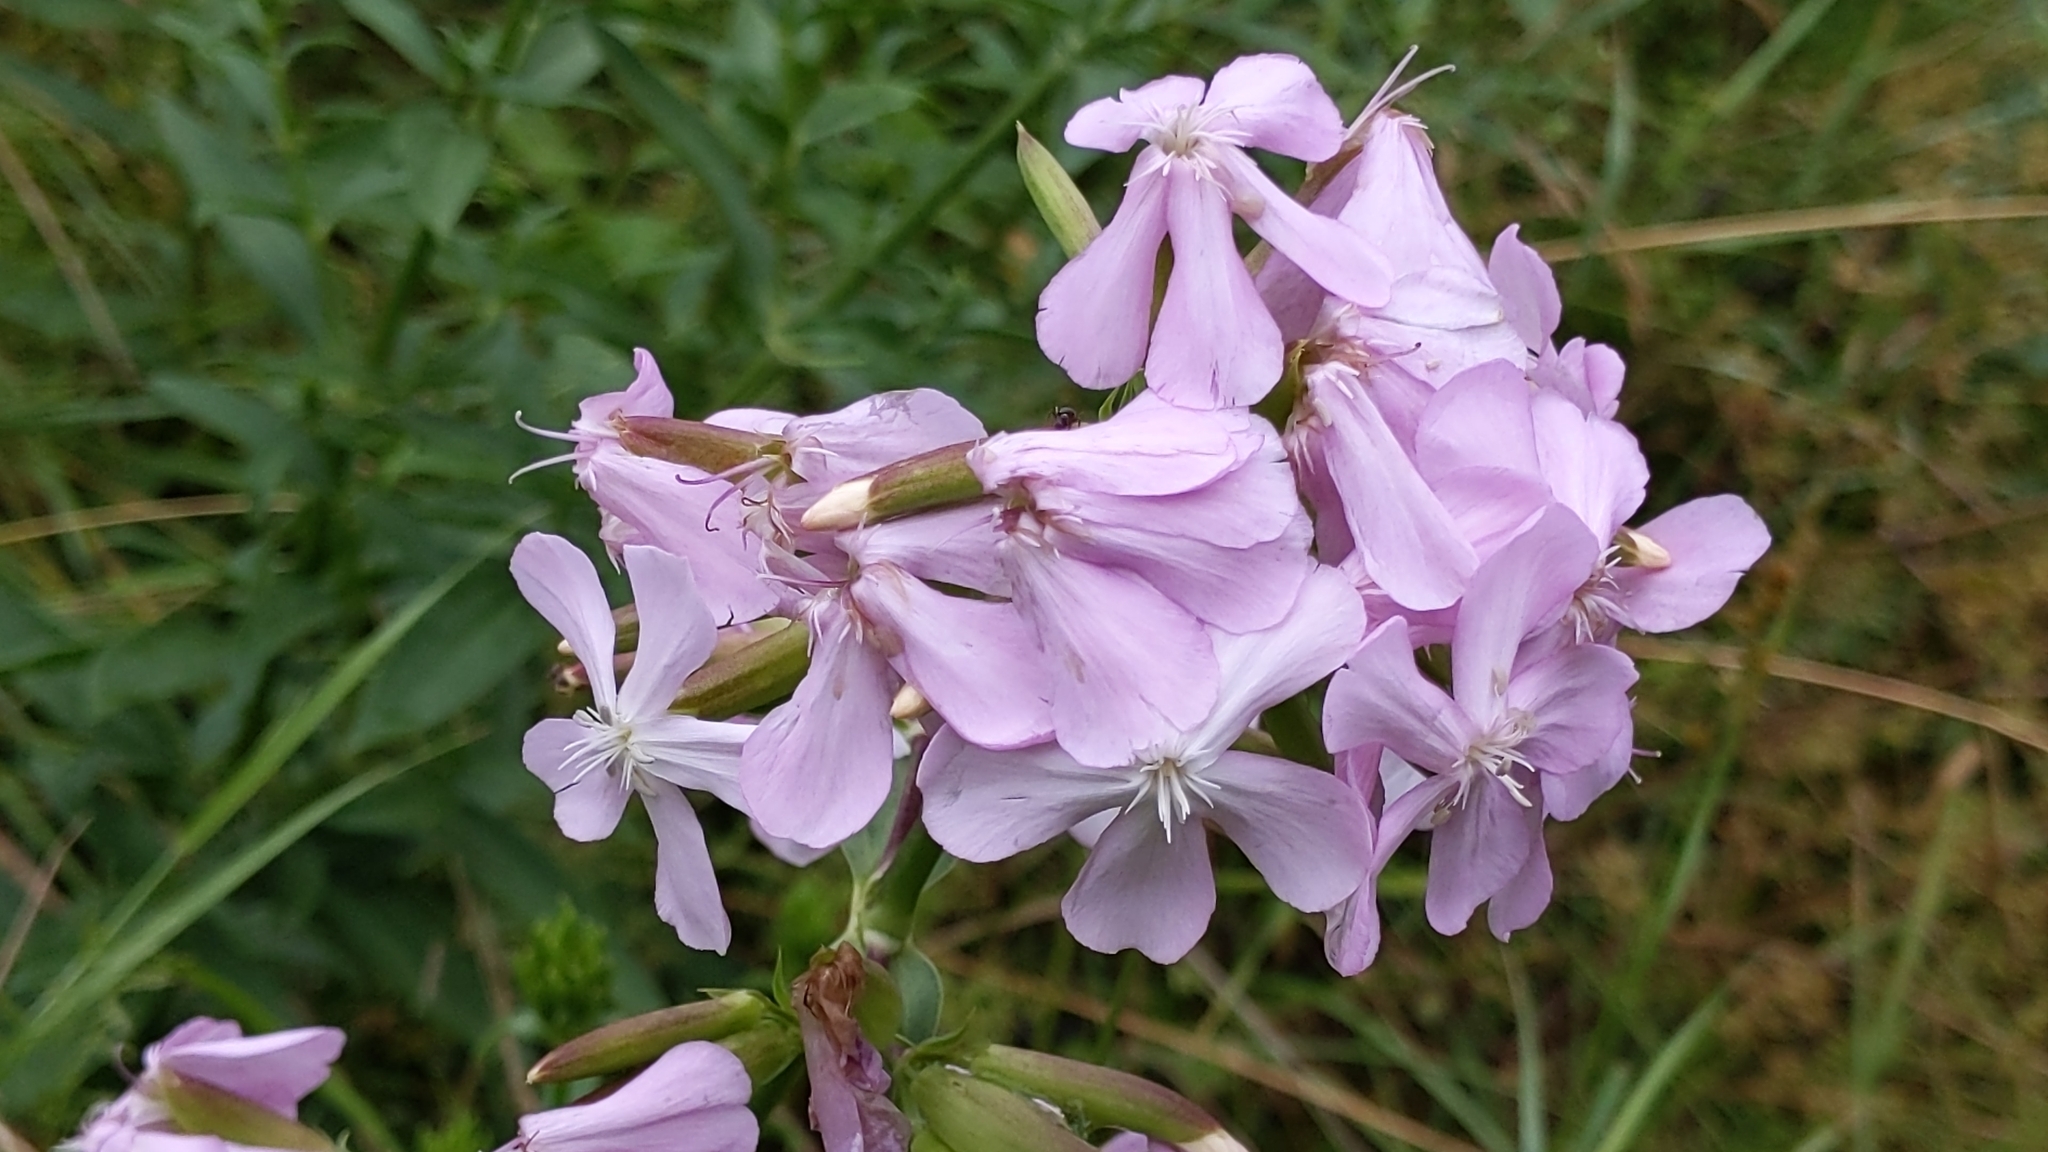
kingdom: Plantae
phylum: Tracheophyta
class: Magnoliopsida
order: Caryophyllales
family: Caryophyllaceae
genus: Saponaria
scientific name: Saponaria officinalis
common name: Soapwort
